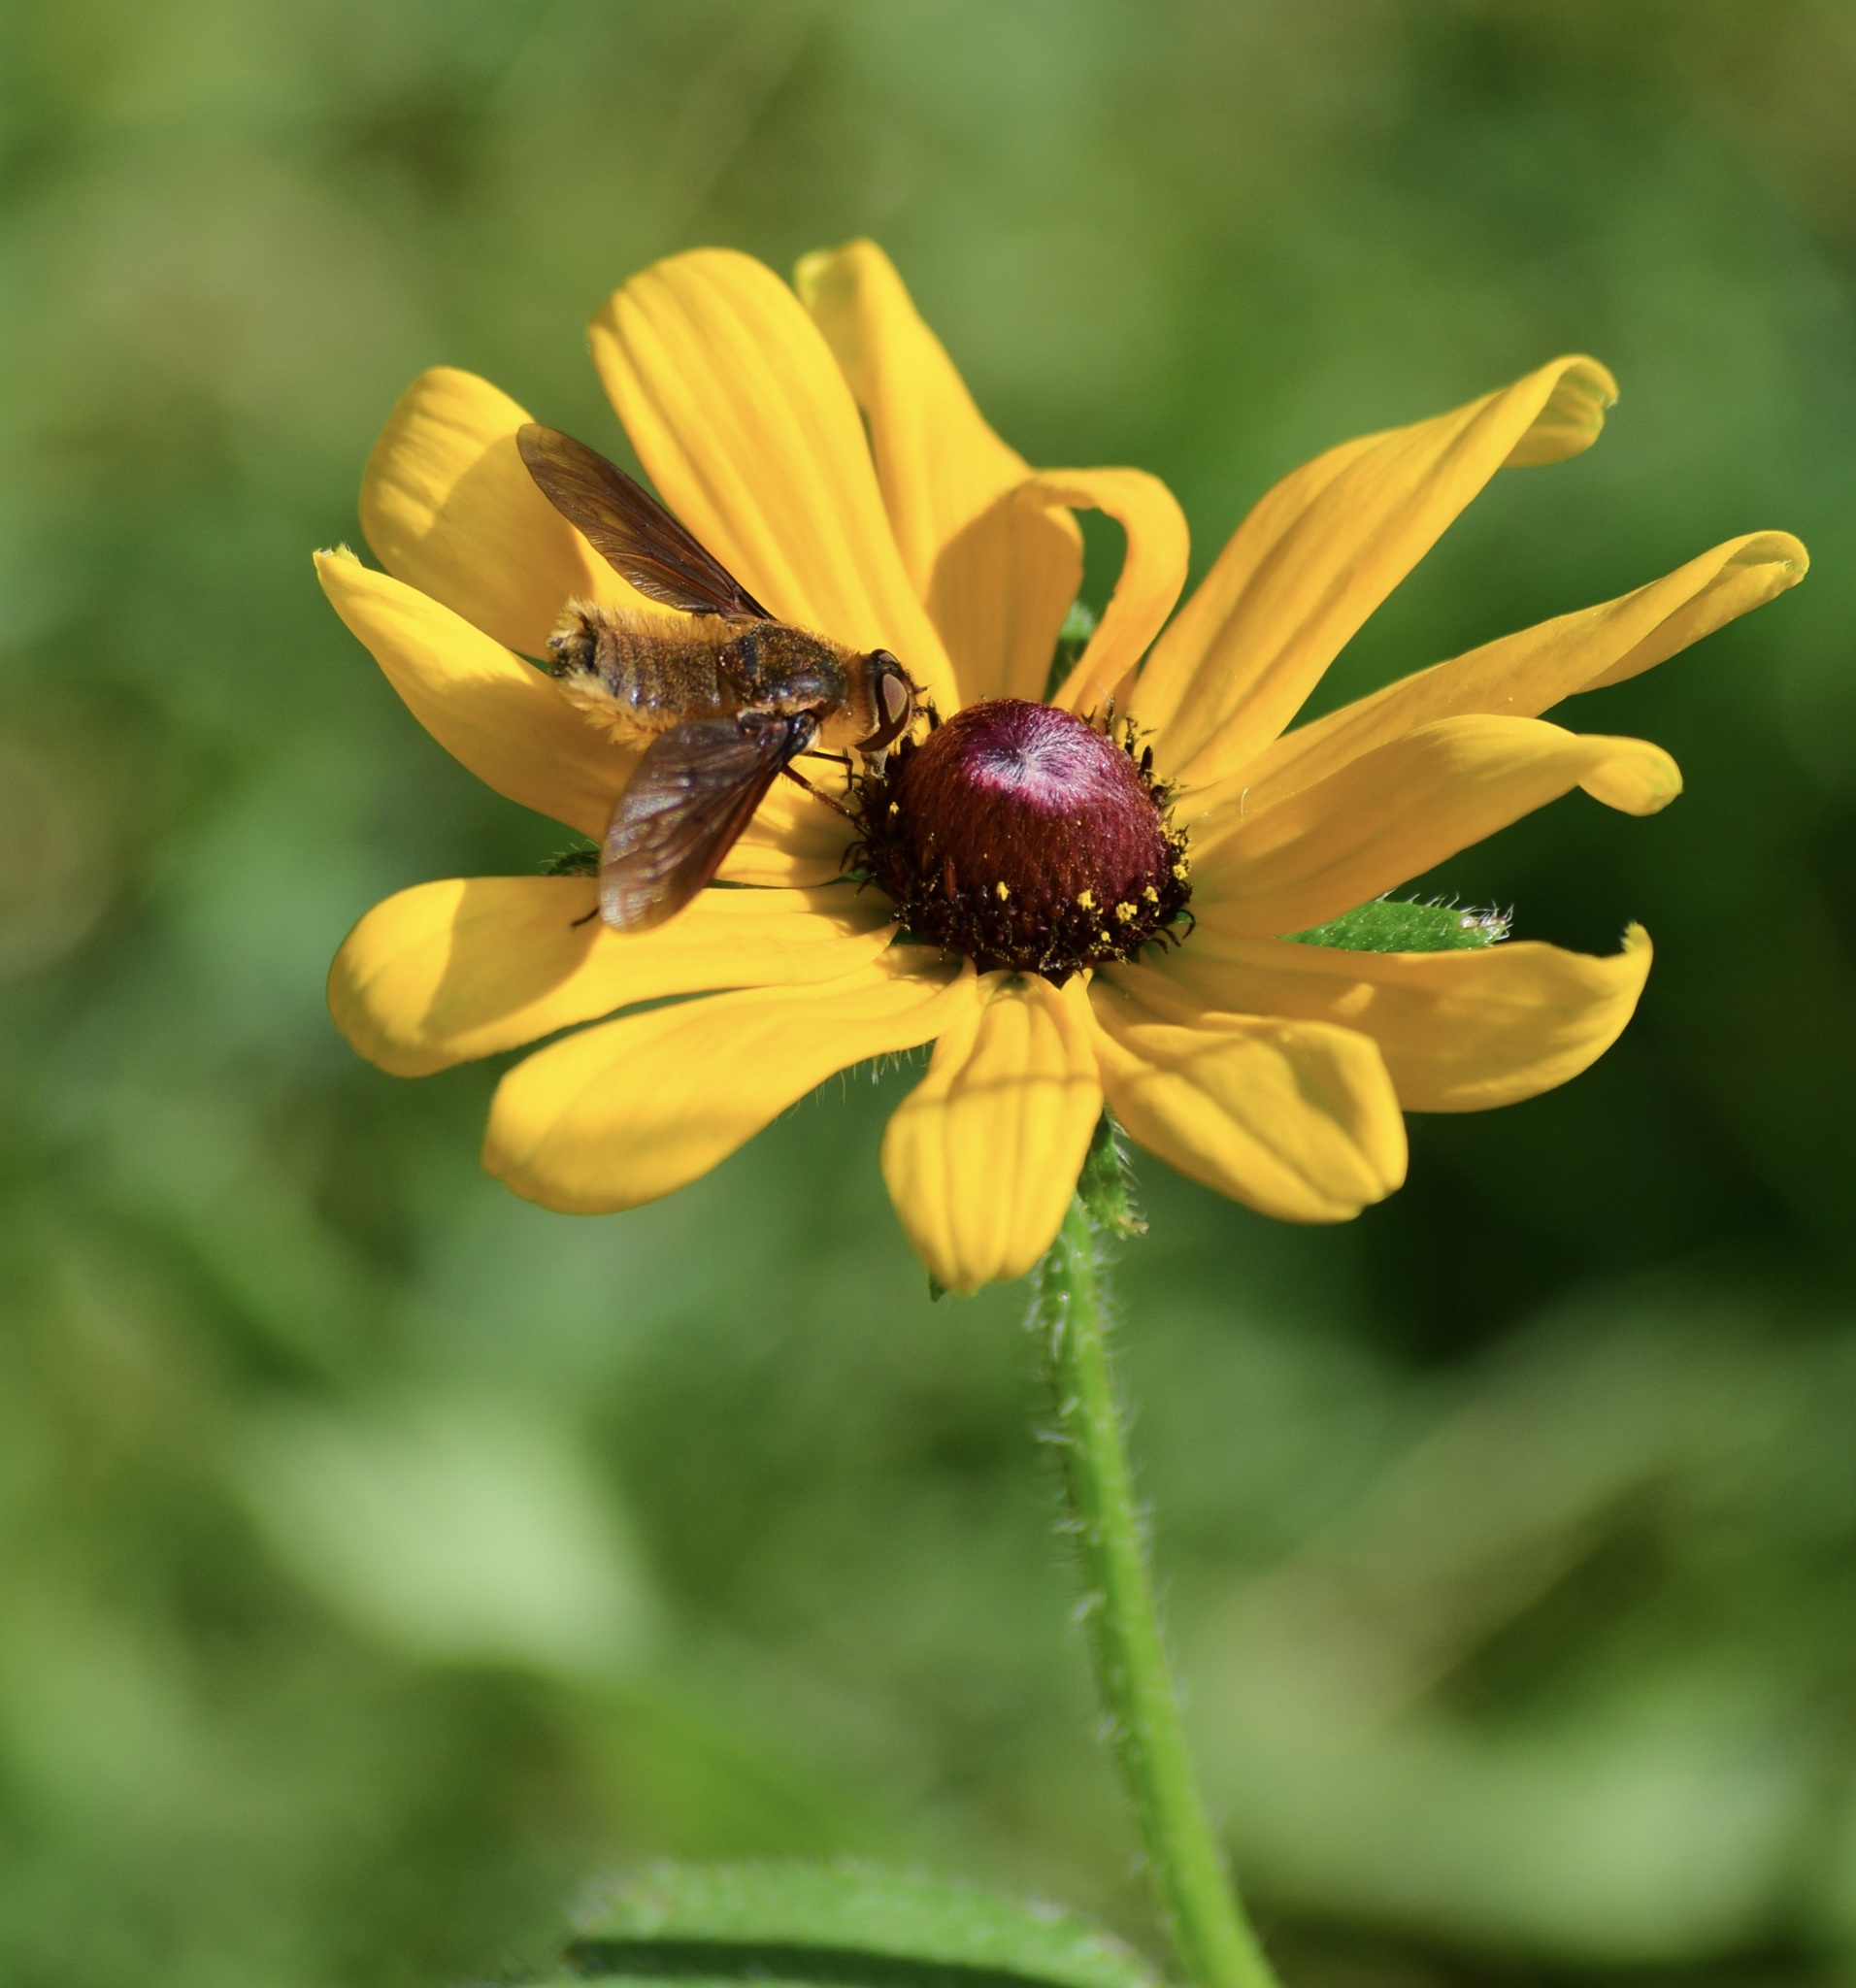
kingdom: Animalia
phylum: Arthropoda
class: Insecta
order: Diptera
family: Bombyliidae
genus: Poecilanthrax
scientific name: Poecilanthrax tegminipennis
